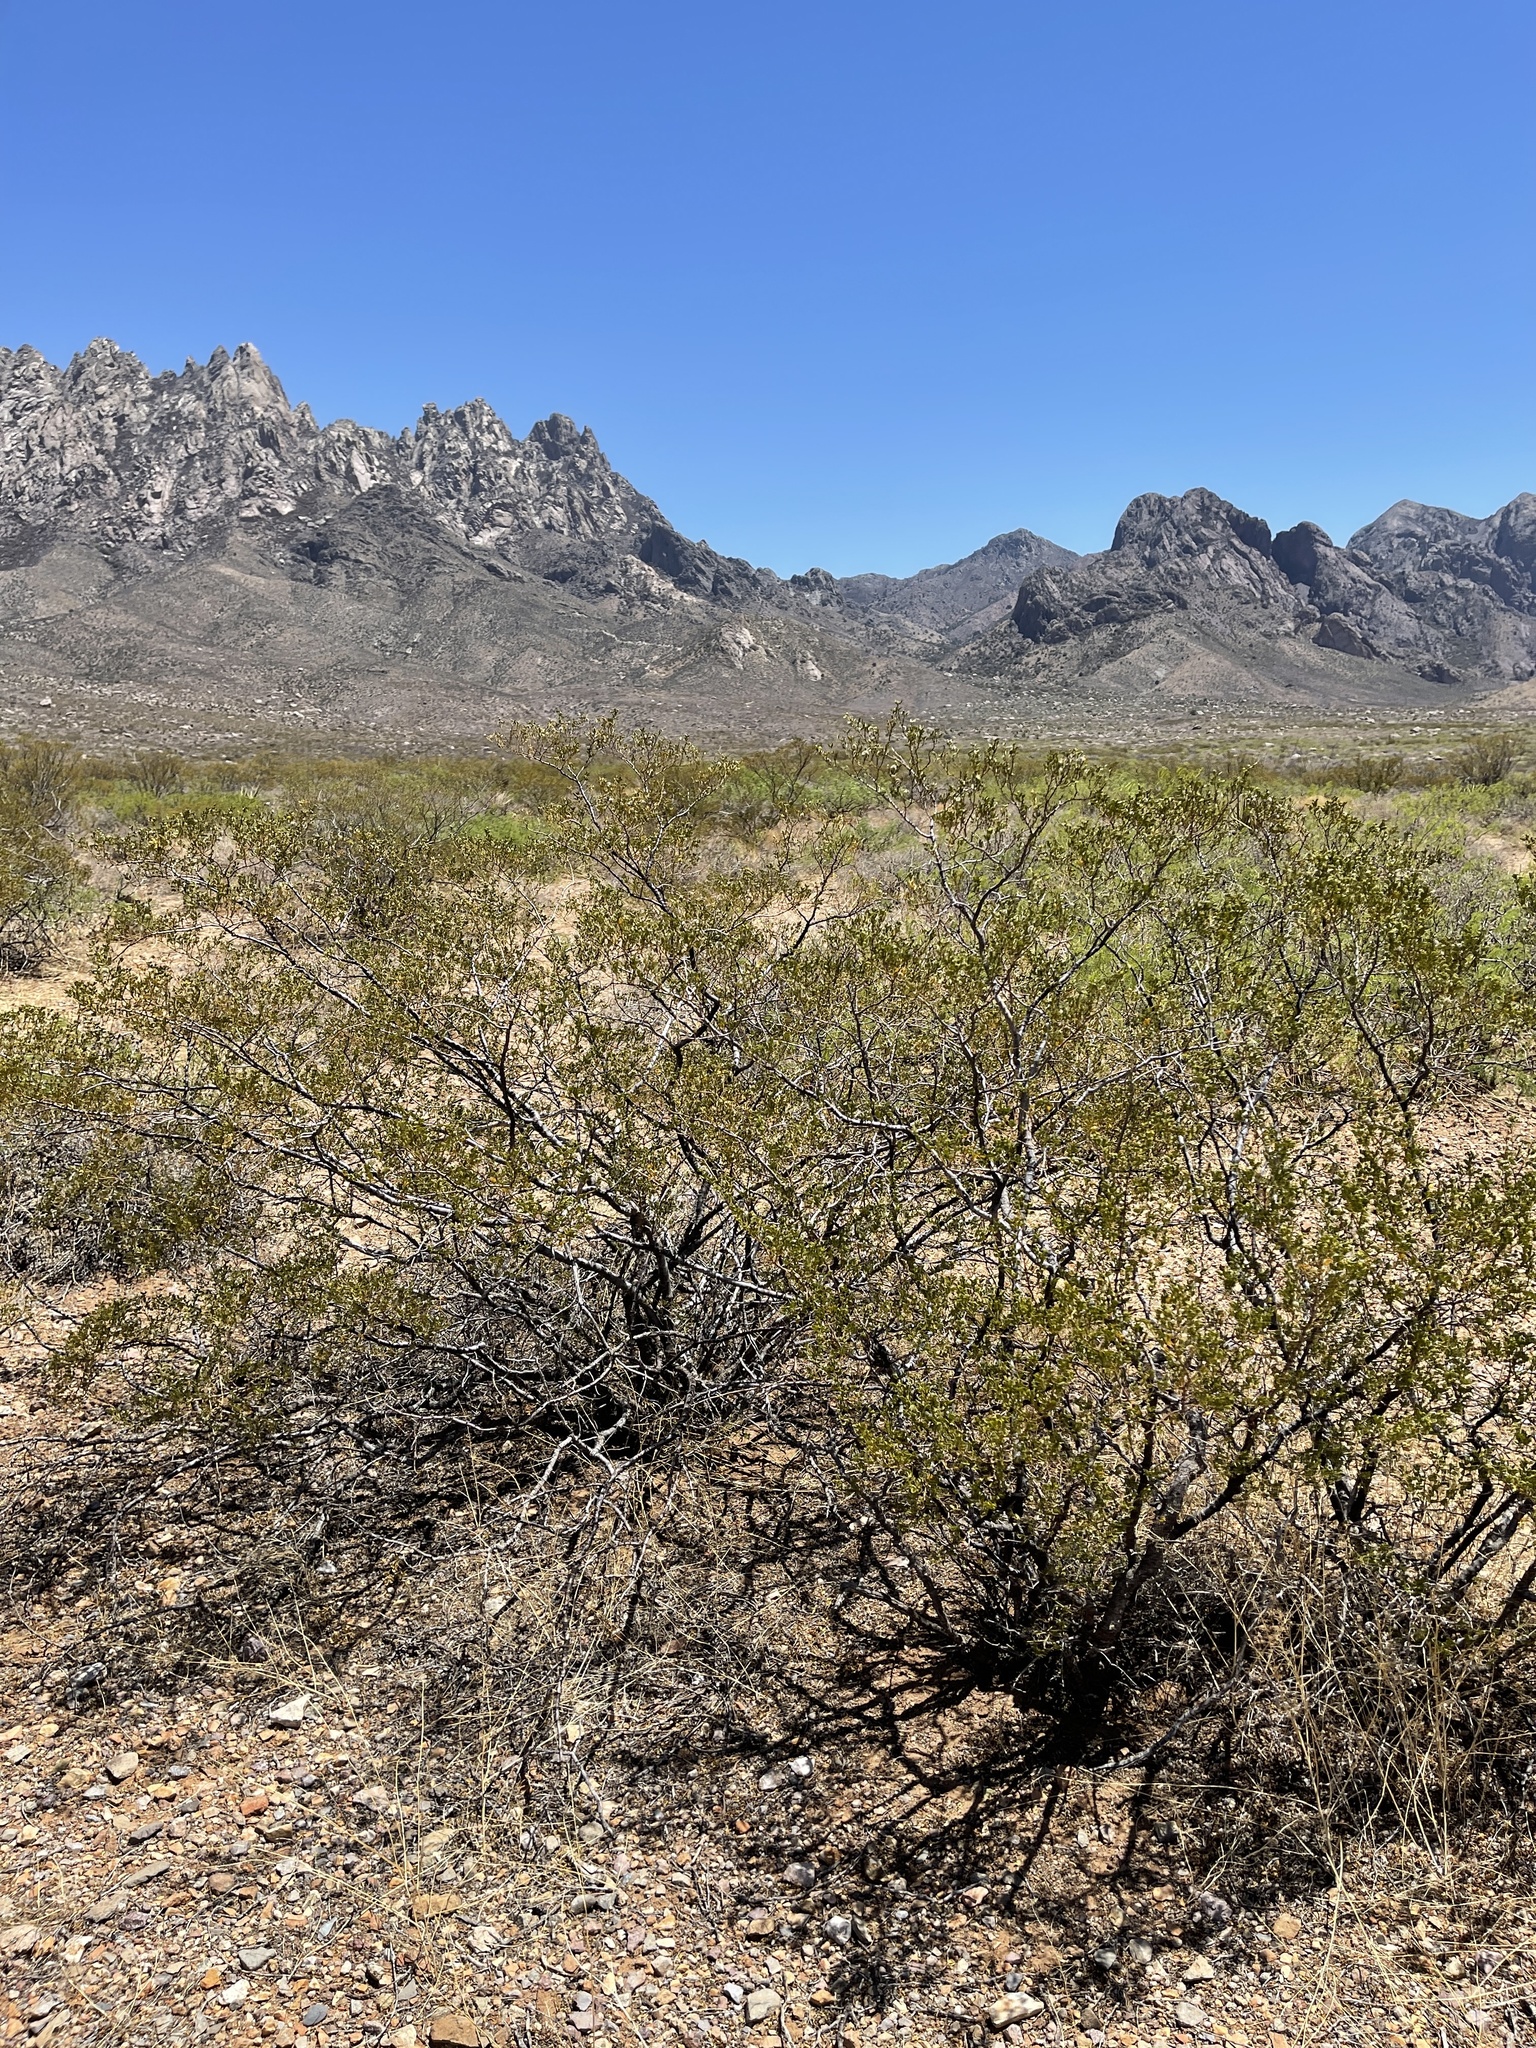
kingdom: Plantae
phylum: Tracheophyta
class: Magnoliopsida
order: Zygophyllales
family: Zygophyllaceae
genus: Larrea
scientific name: Larrea tridentata
